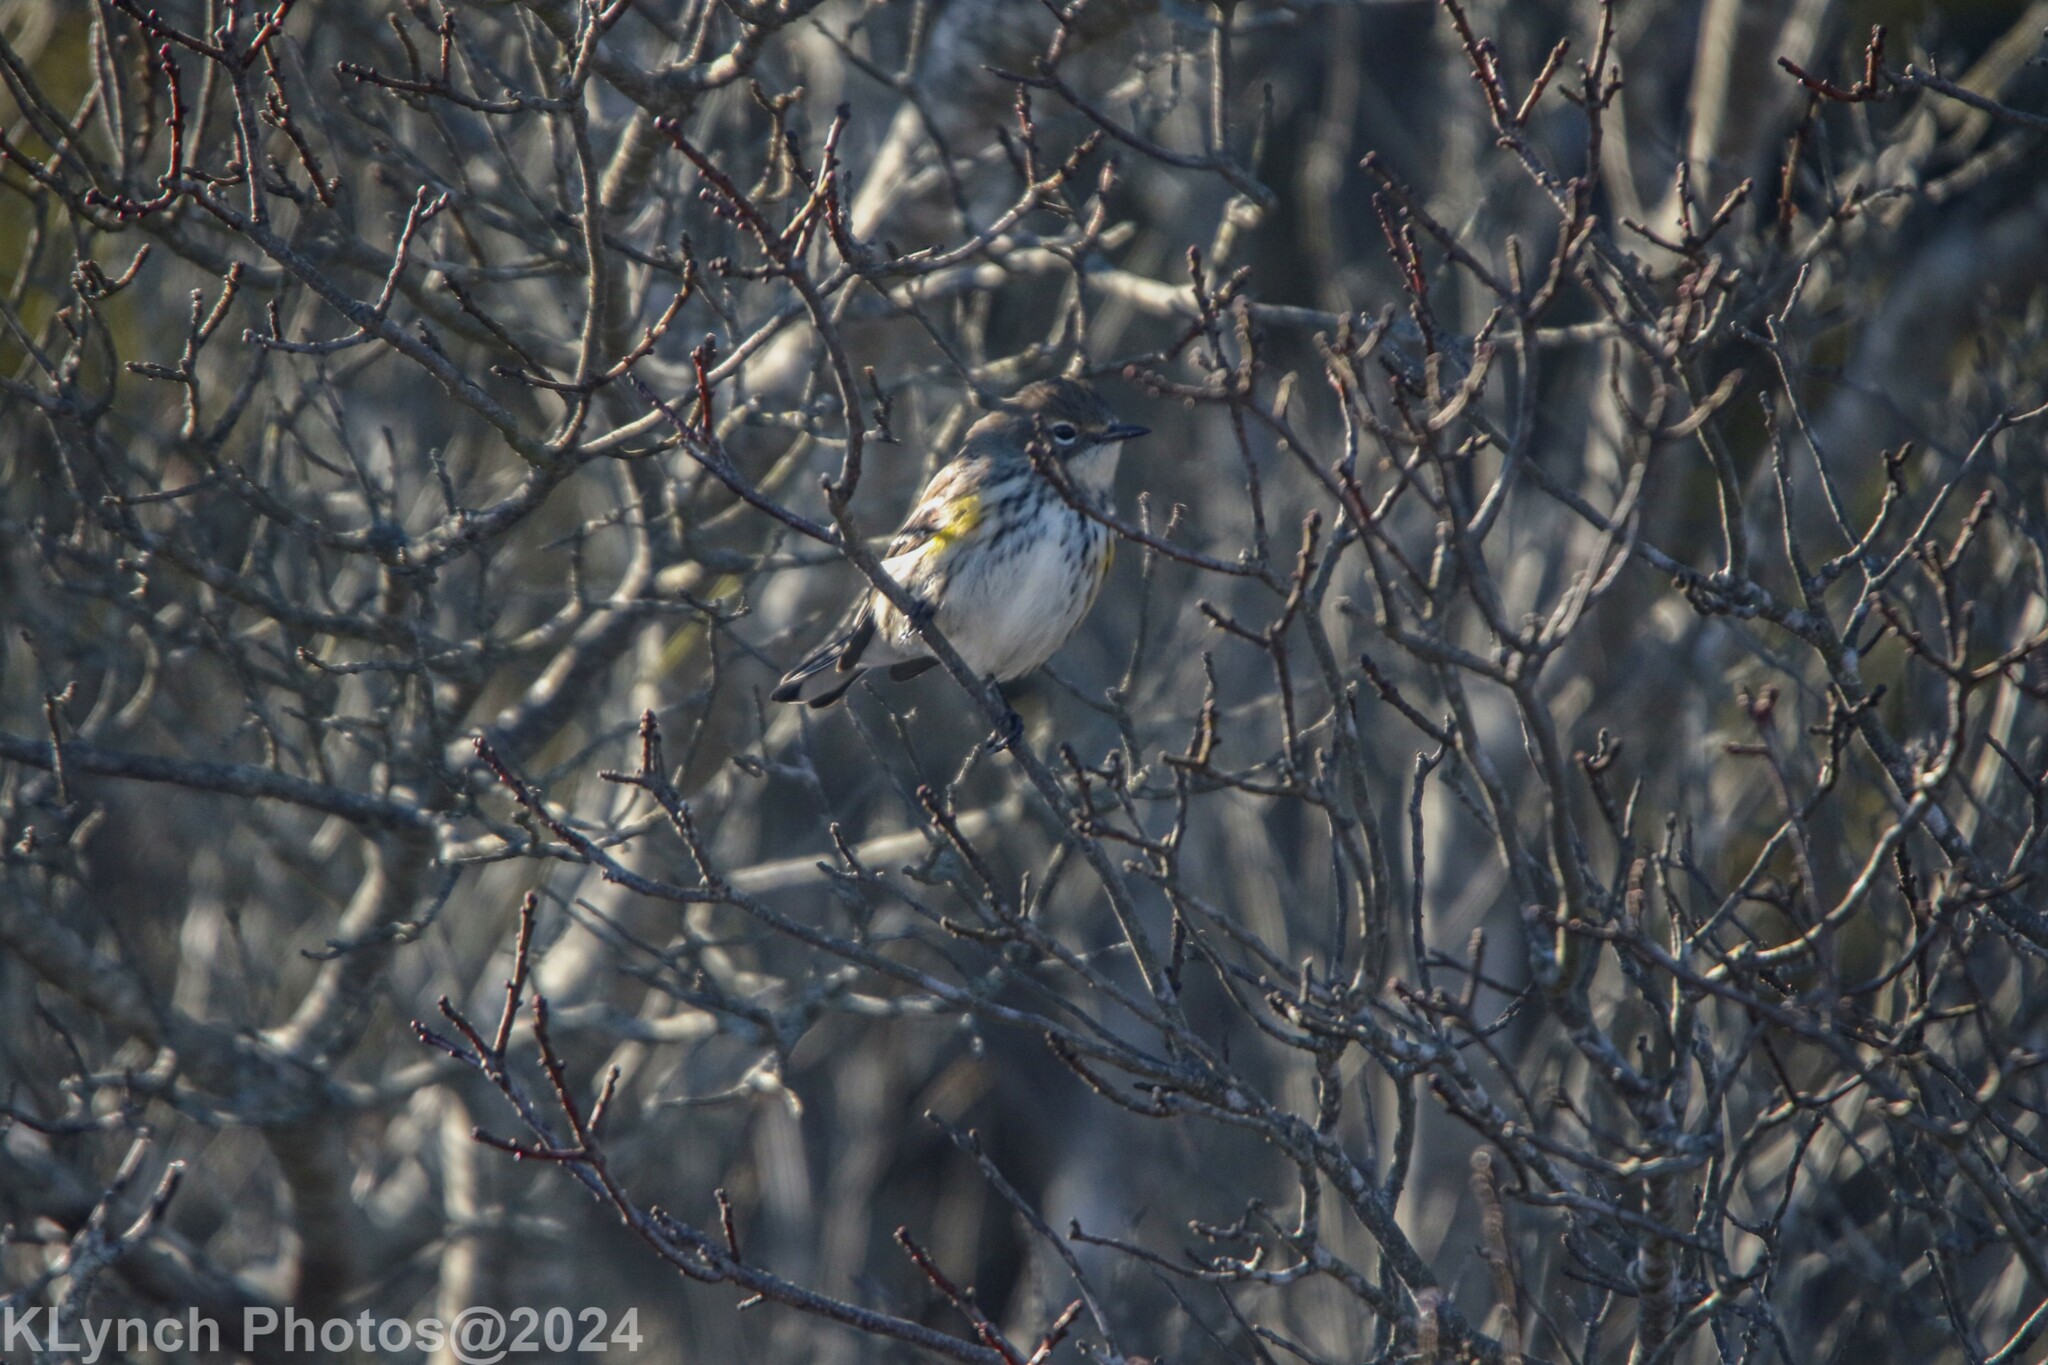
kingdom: Animalia
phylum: Chordata
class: Aves
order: Passeriformes
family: Parulidae
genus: Setophaga
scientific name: Setophaga coronata
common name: Myrtle warbler
